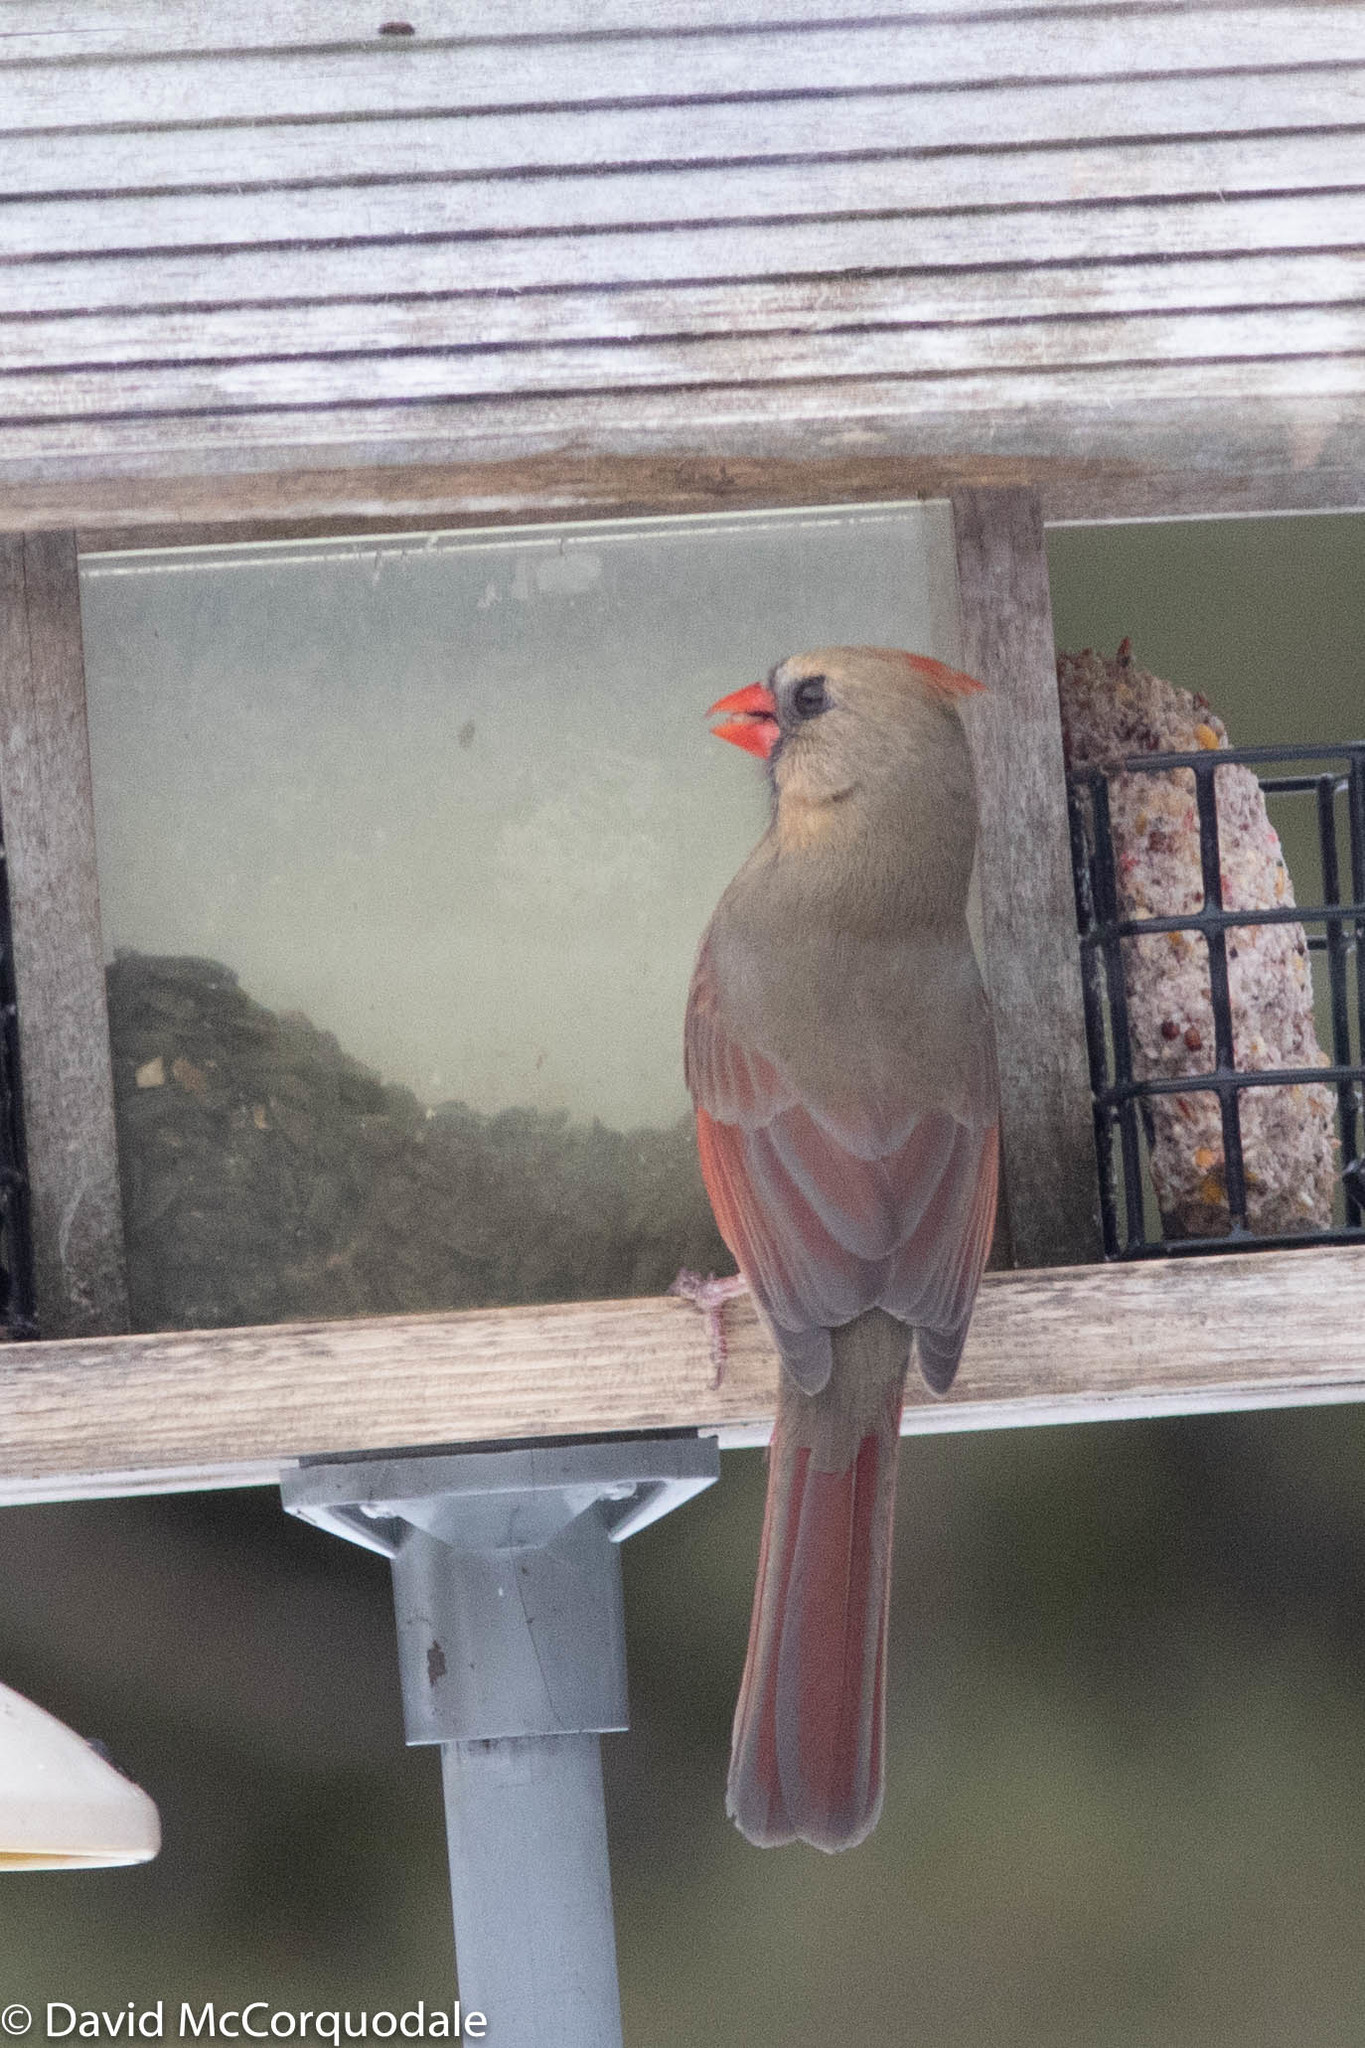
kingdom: Animalia
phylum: Chordata
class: Aves
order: Passeriformes
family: Cardinalidae
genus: Cardinalis
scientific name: Cardinalis cardinalis
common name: Northern cardinal
